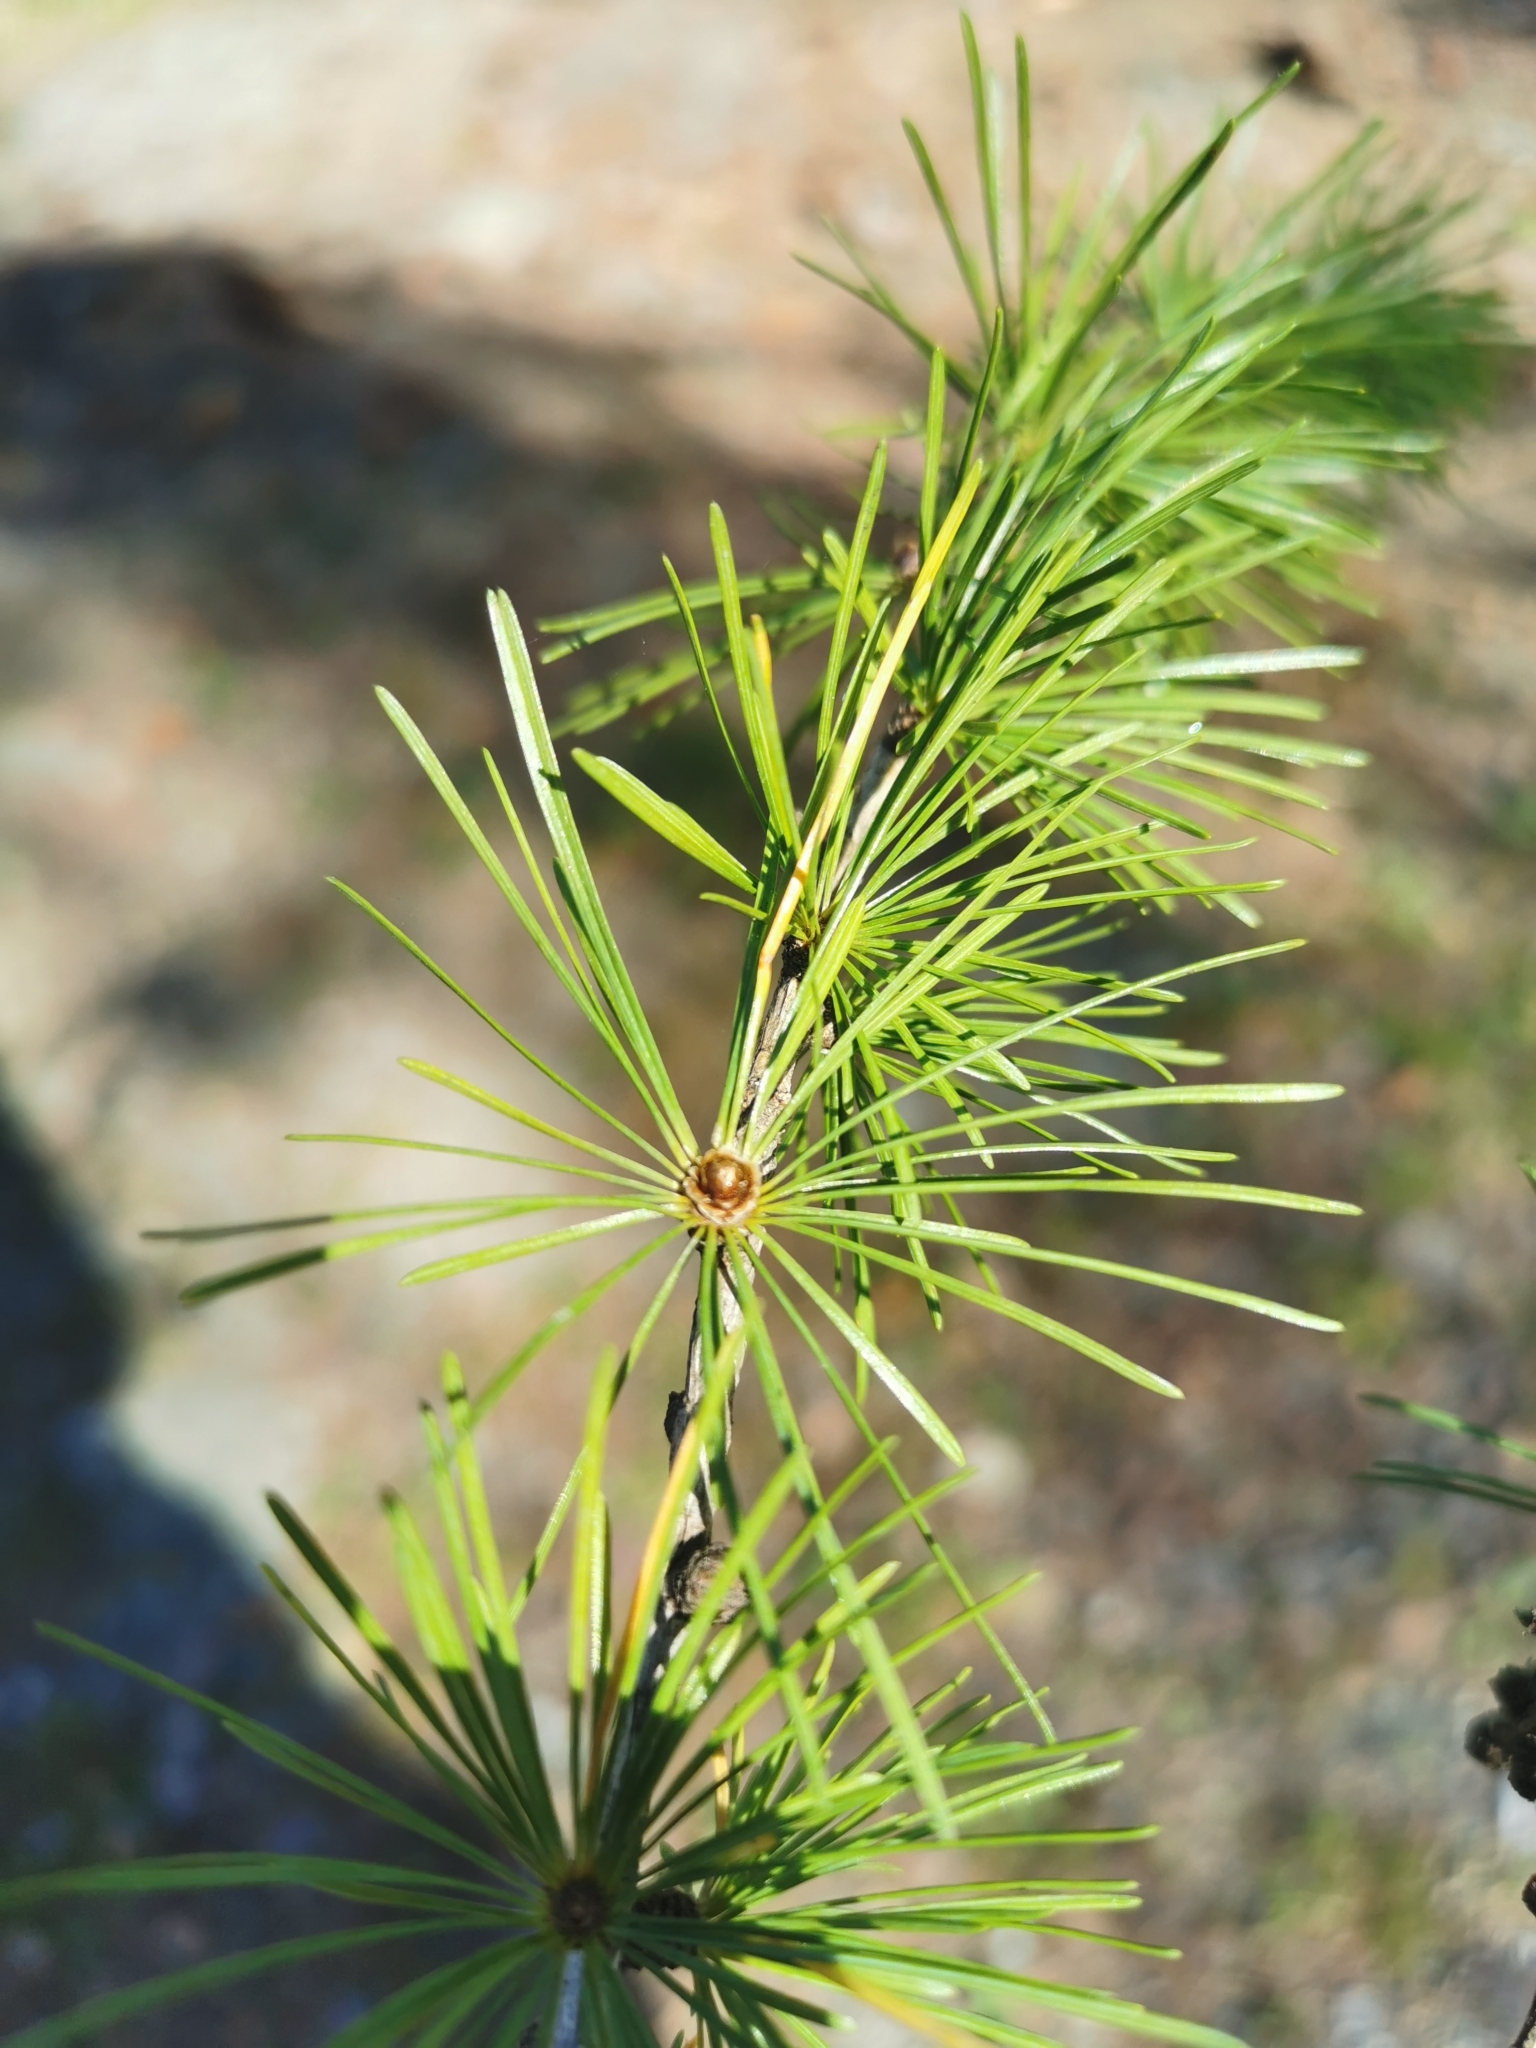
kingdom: Plantae
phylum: Tracheophyta
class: Pinopsida
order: Pinales
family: Pinaceae
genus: Larix
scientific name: Larix decidua
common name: European larch
